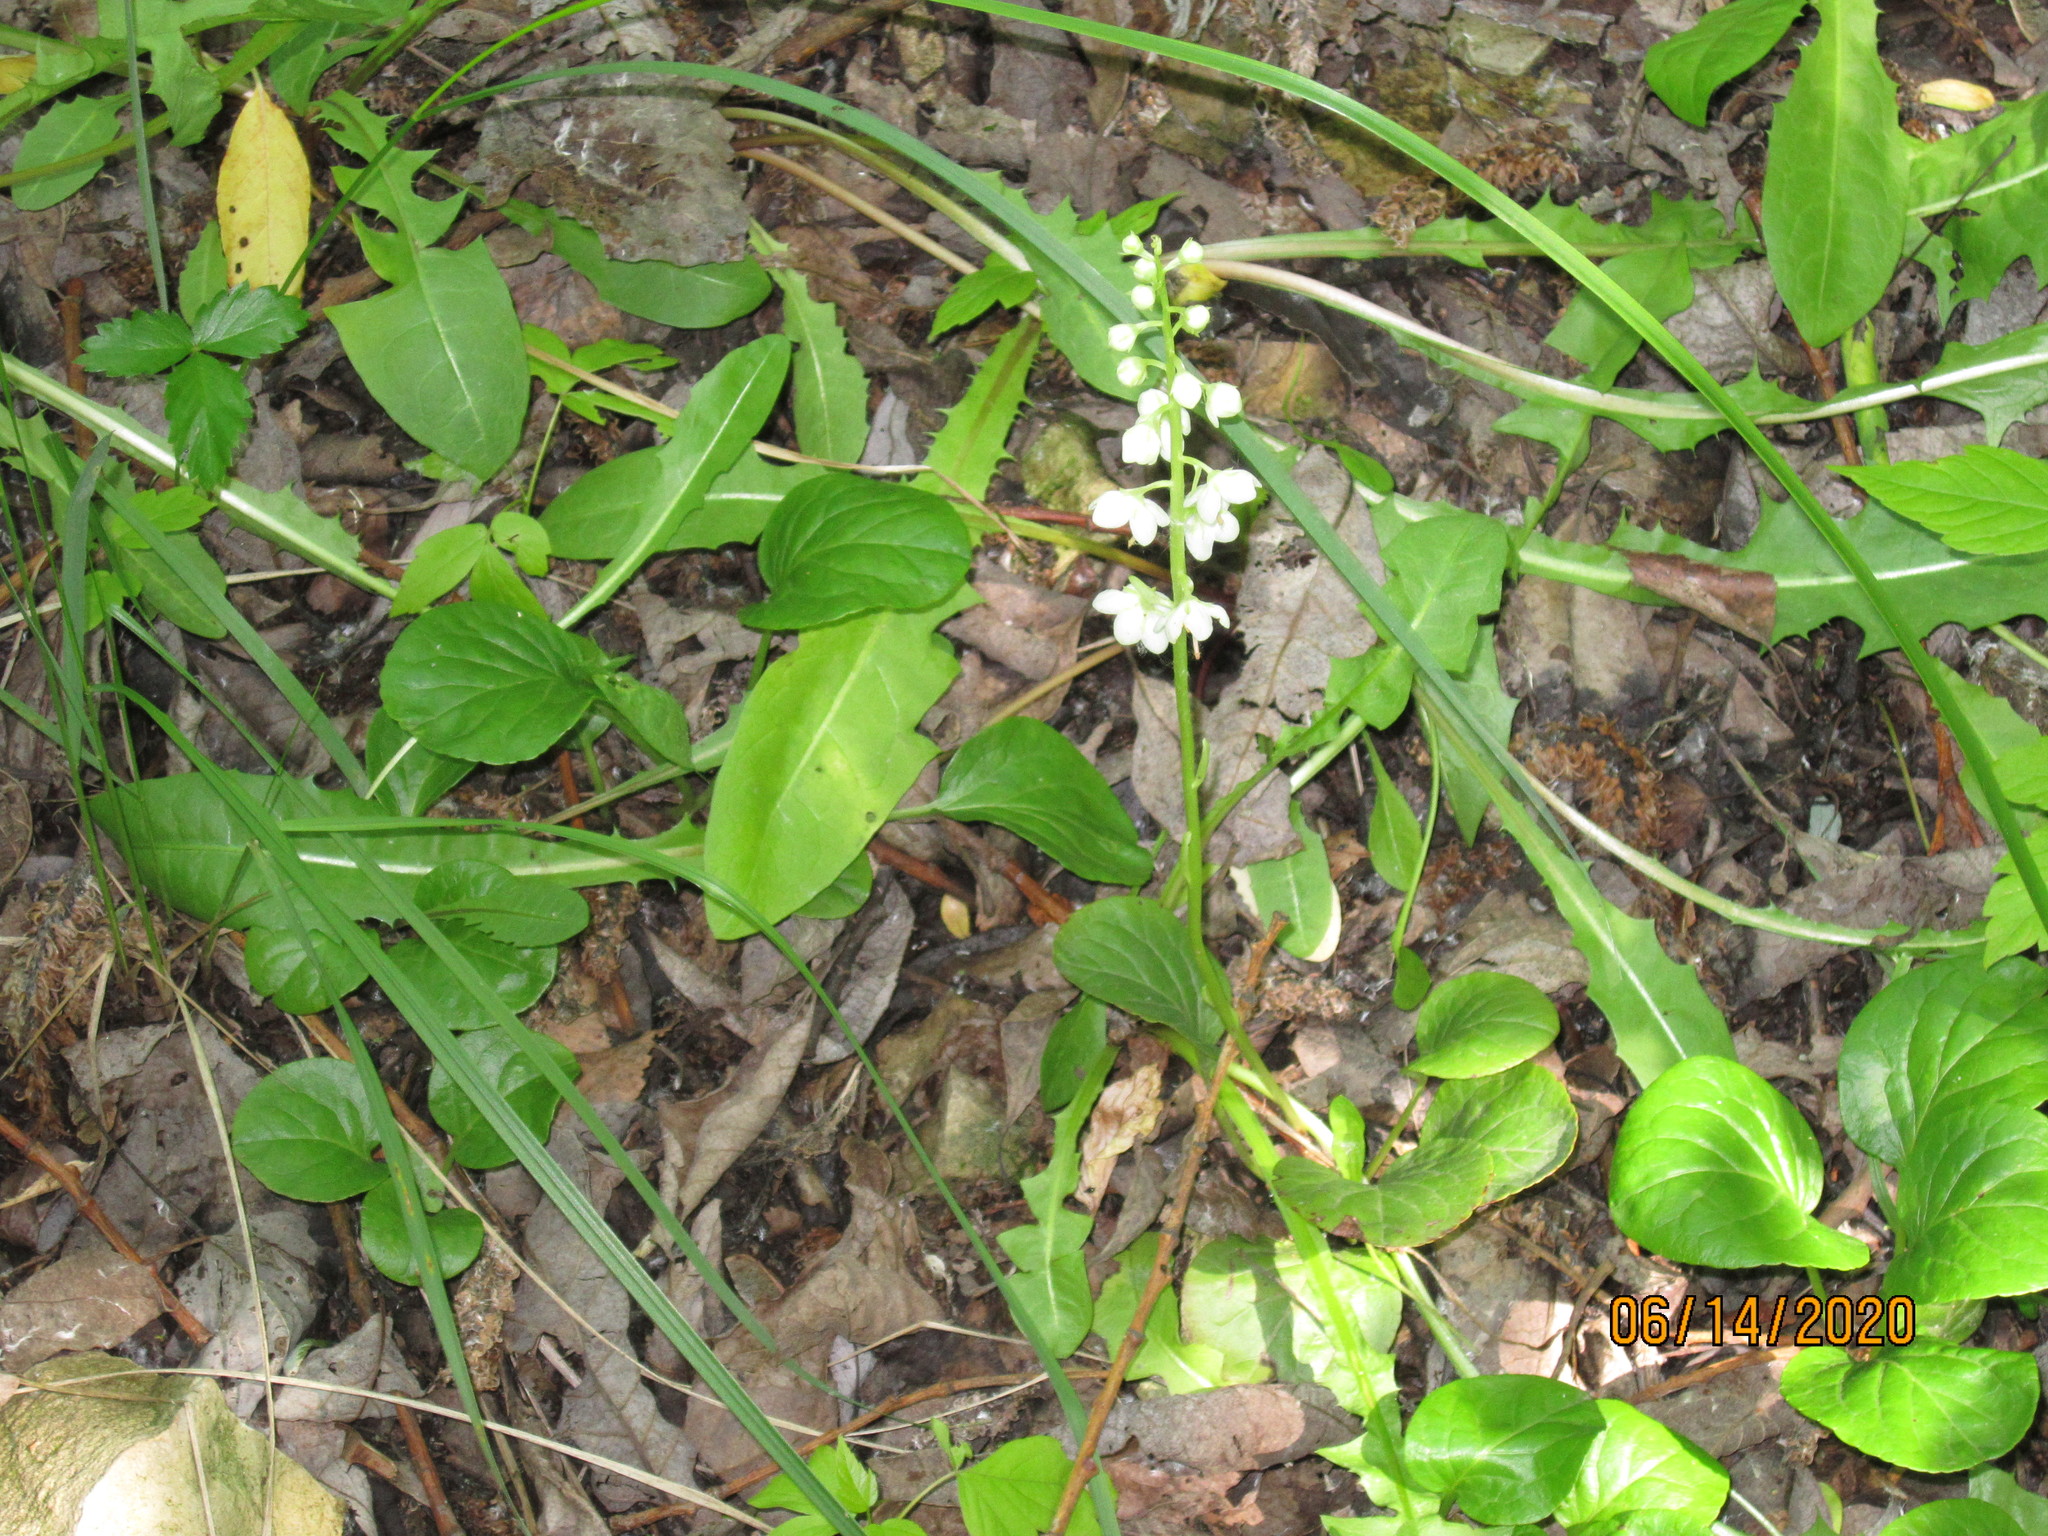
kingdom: Plantae
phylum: Tracheophyta
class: Magnoliopsida
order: Ericales
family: Ericaceae
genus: Pyrola
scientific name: Pyrola rotundifolia
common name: Round-leaved wintergreen
